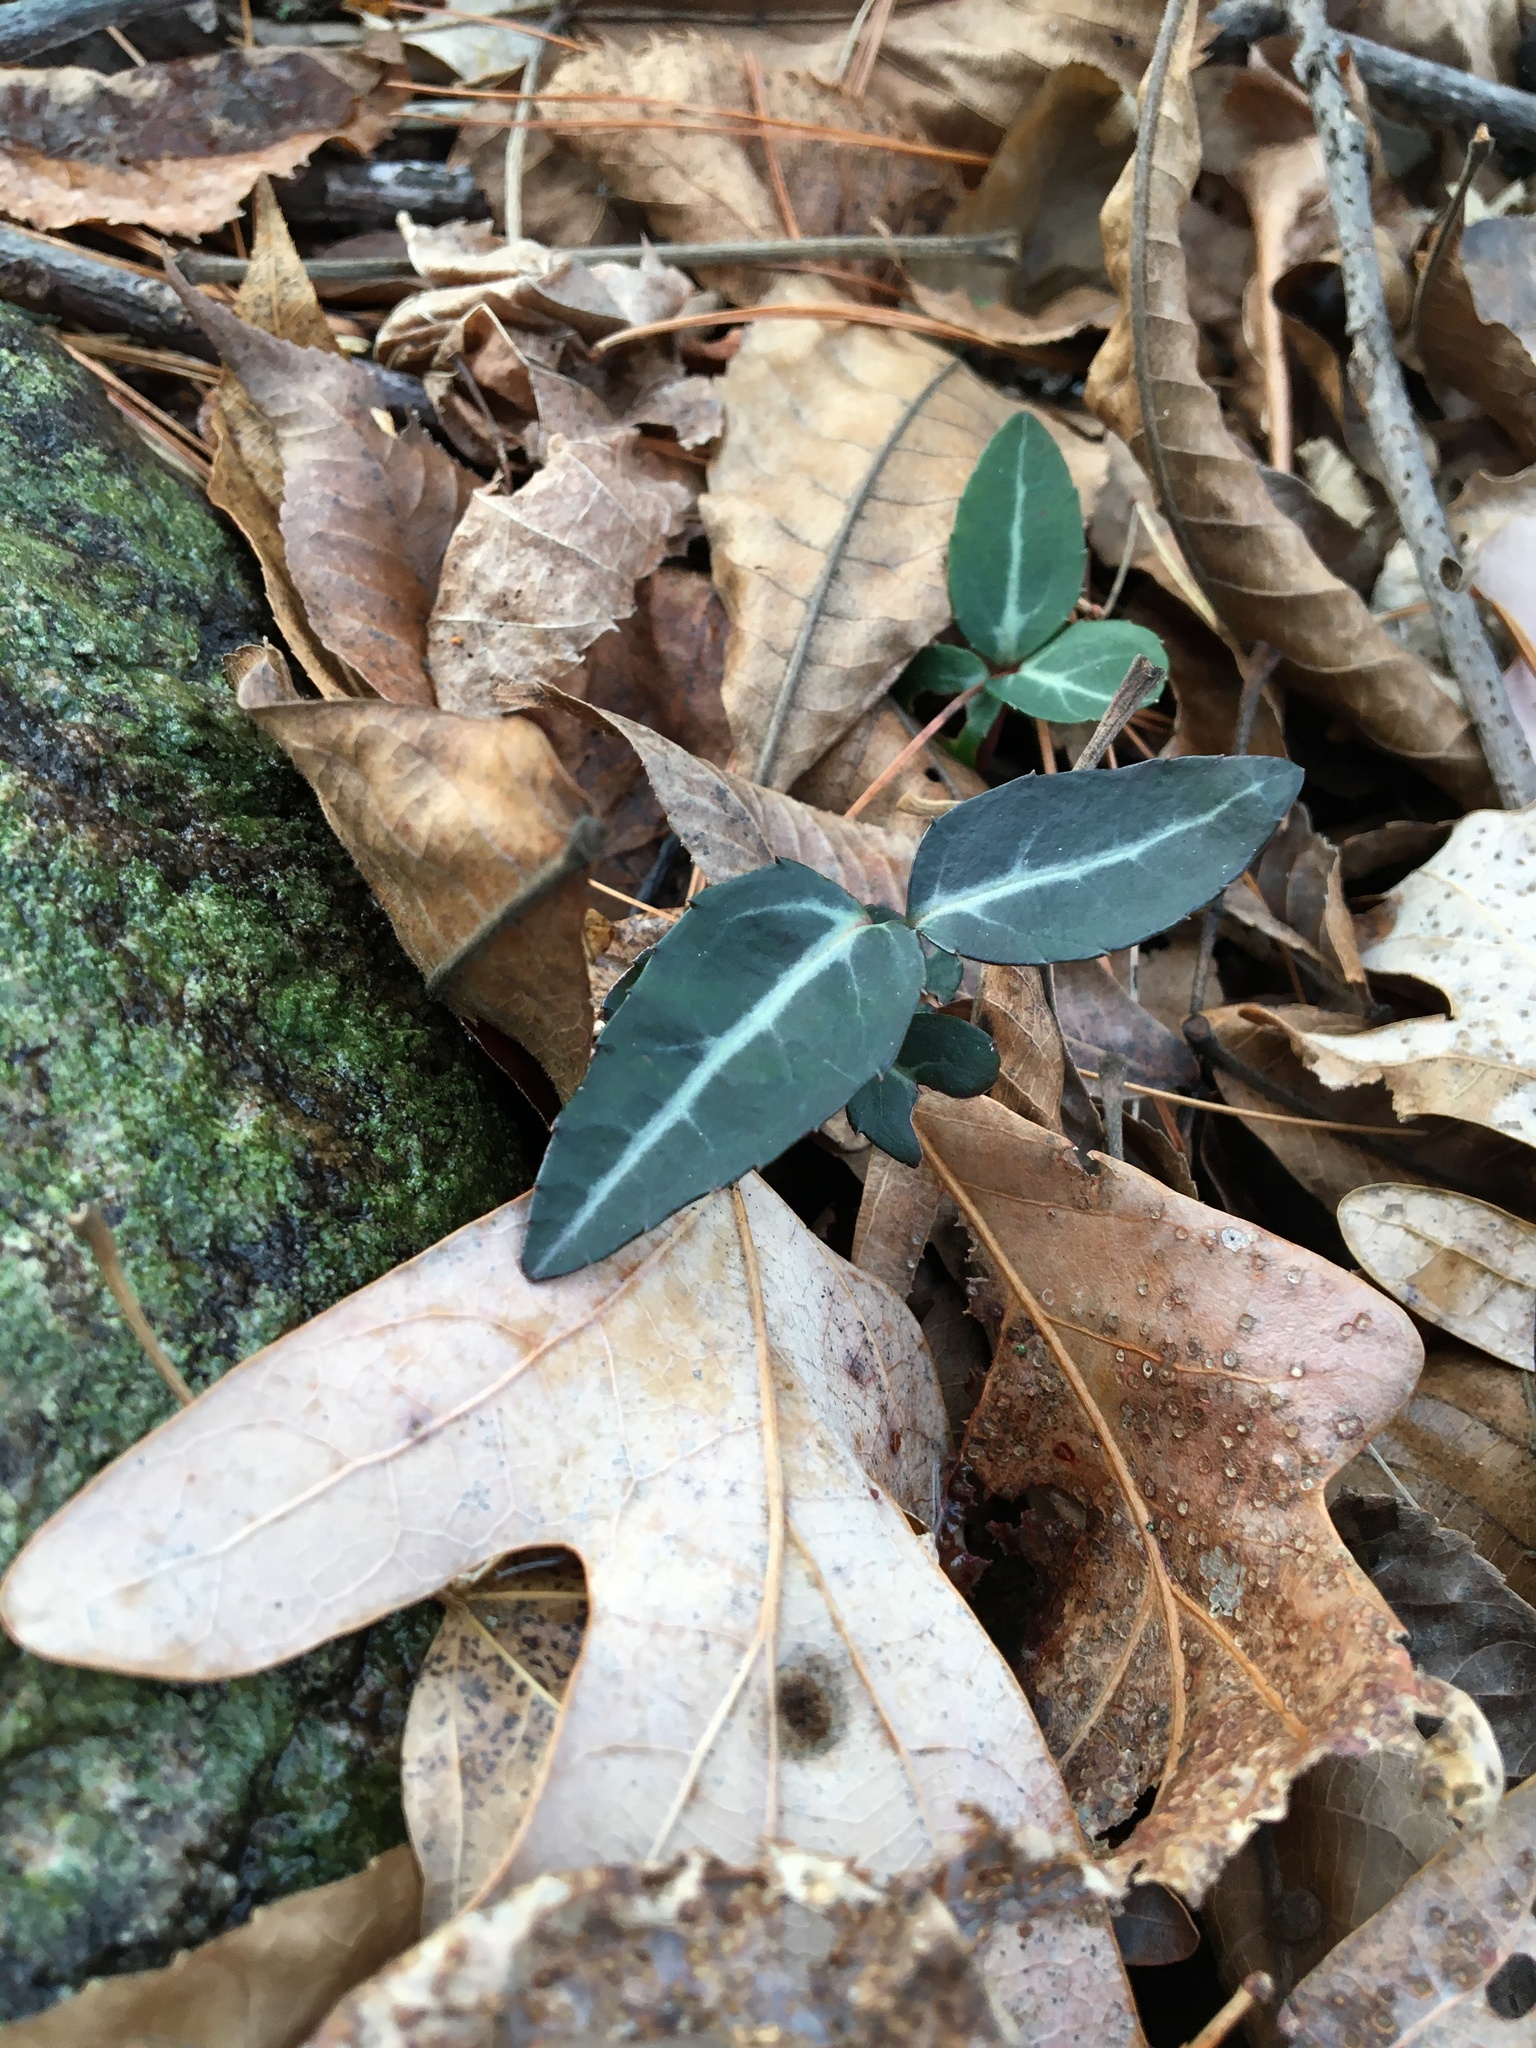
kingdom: Plantae
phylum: Tracheophyta
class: Magnoliopsida
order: Ericales
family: Ericaceae
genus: Chimaphila
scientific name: Chimaphila maculata
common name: Spotted pipsissewa
